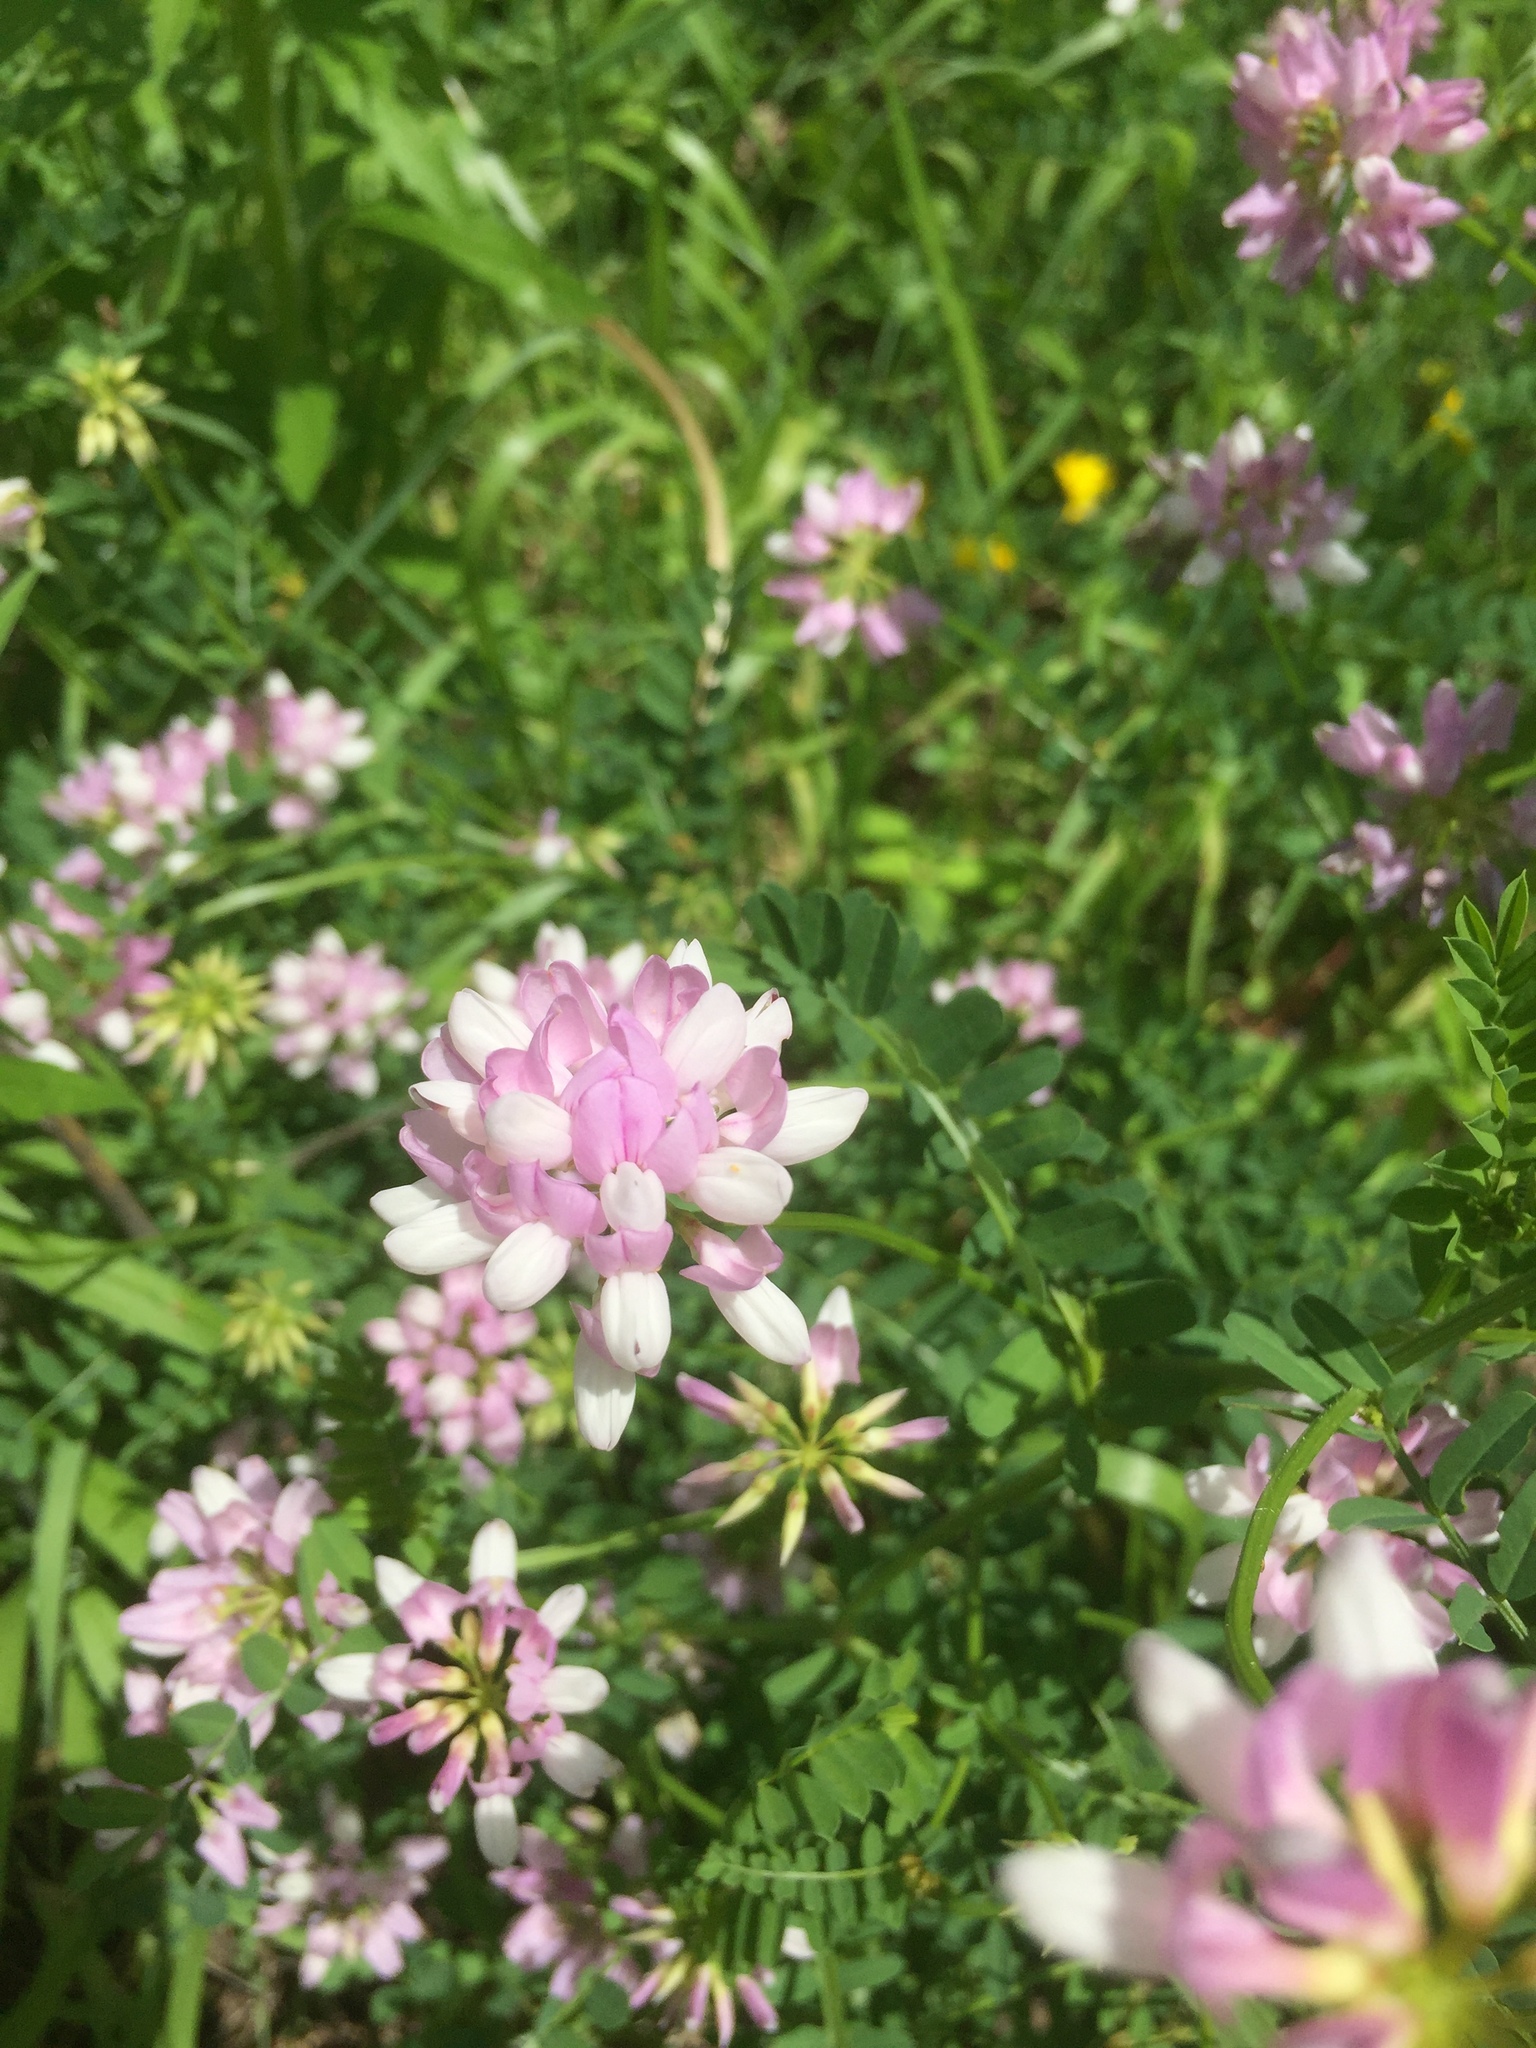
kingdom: Plantae
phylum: Tracheophyta
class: Magnoliopsida
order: Fabales
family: Fabaceae
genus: Coronilla
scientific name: Coronilla varia
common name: Crownvetch
